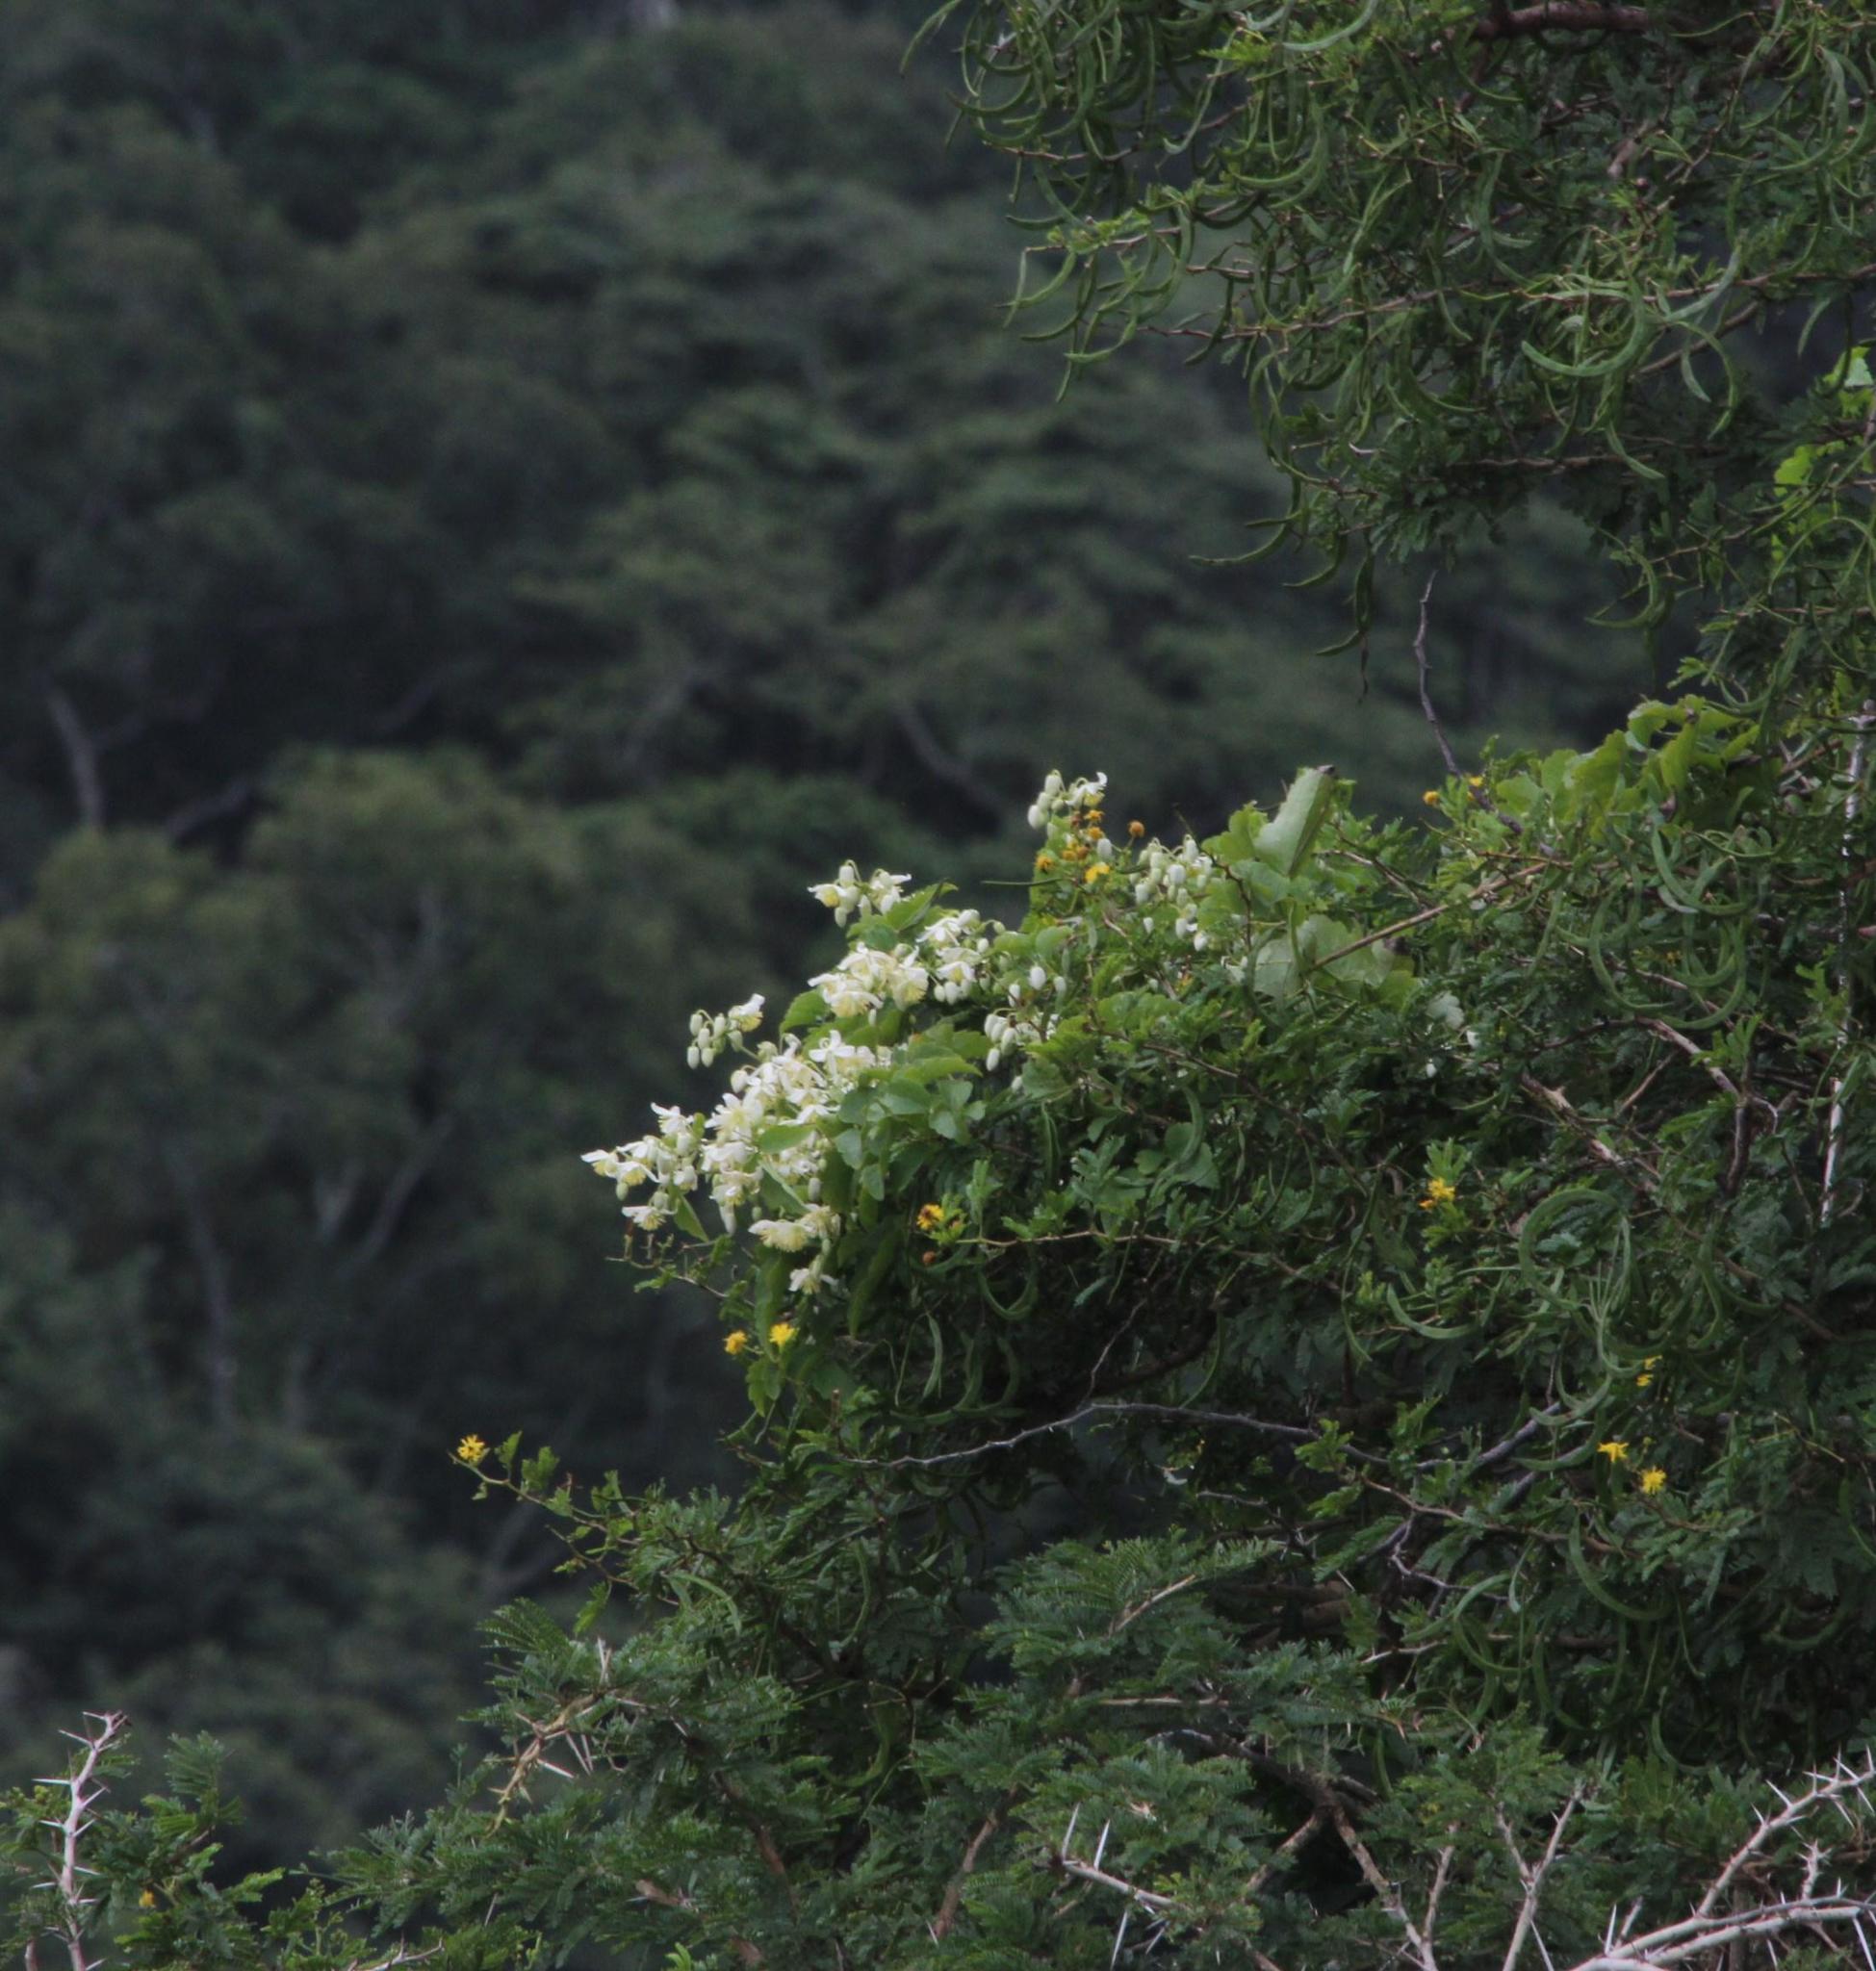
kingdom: Plantae
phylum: Tracheophyta
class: Magnoliopsida
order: Ranunculales
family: Ranunculaceae
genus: Clematis
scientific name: Clematis brachiata
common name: Traveler's-joy
